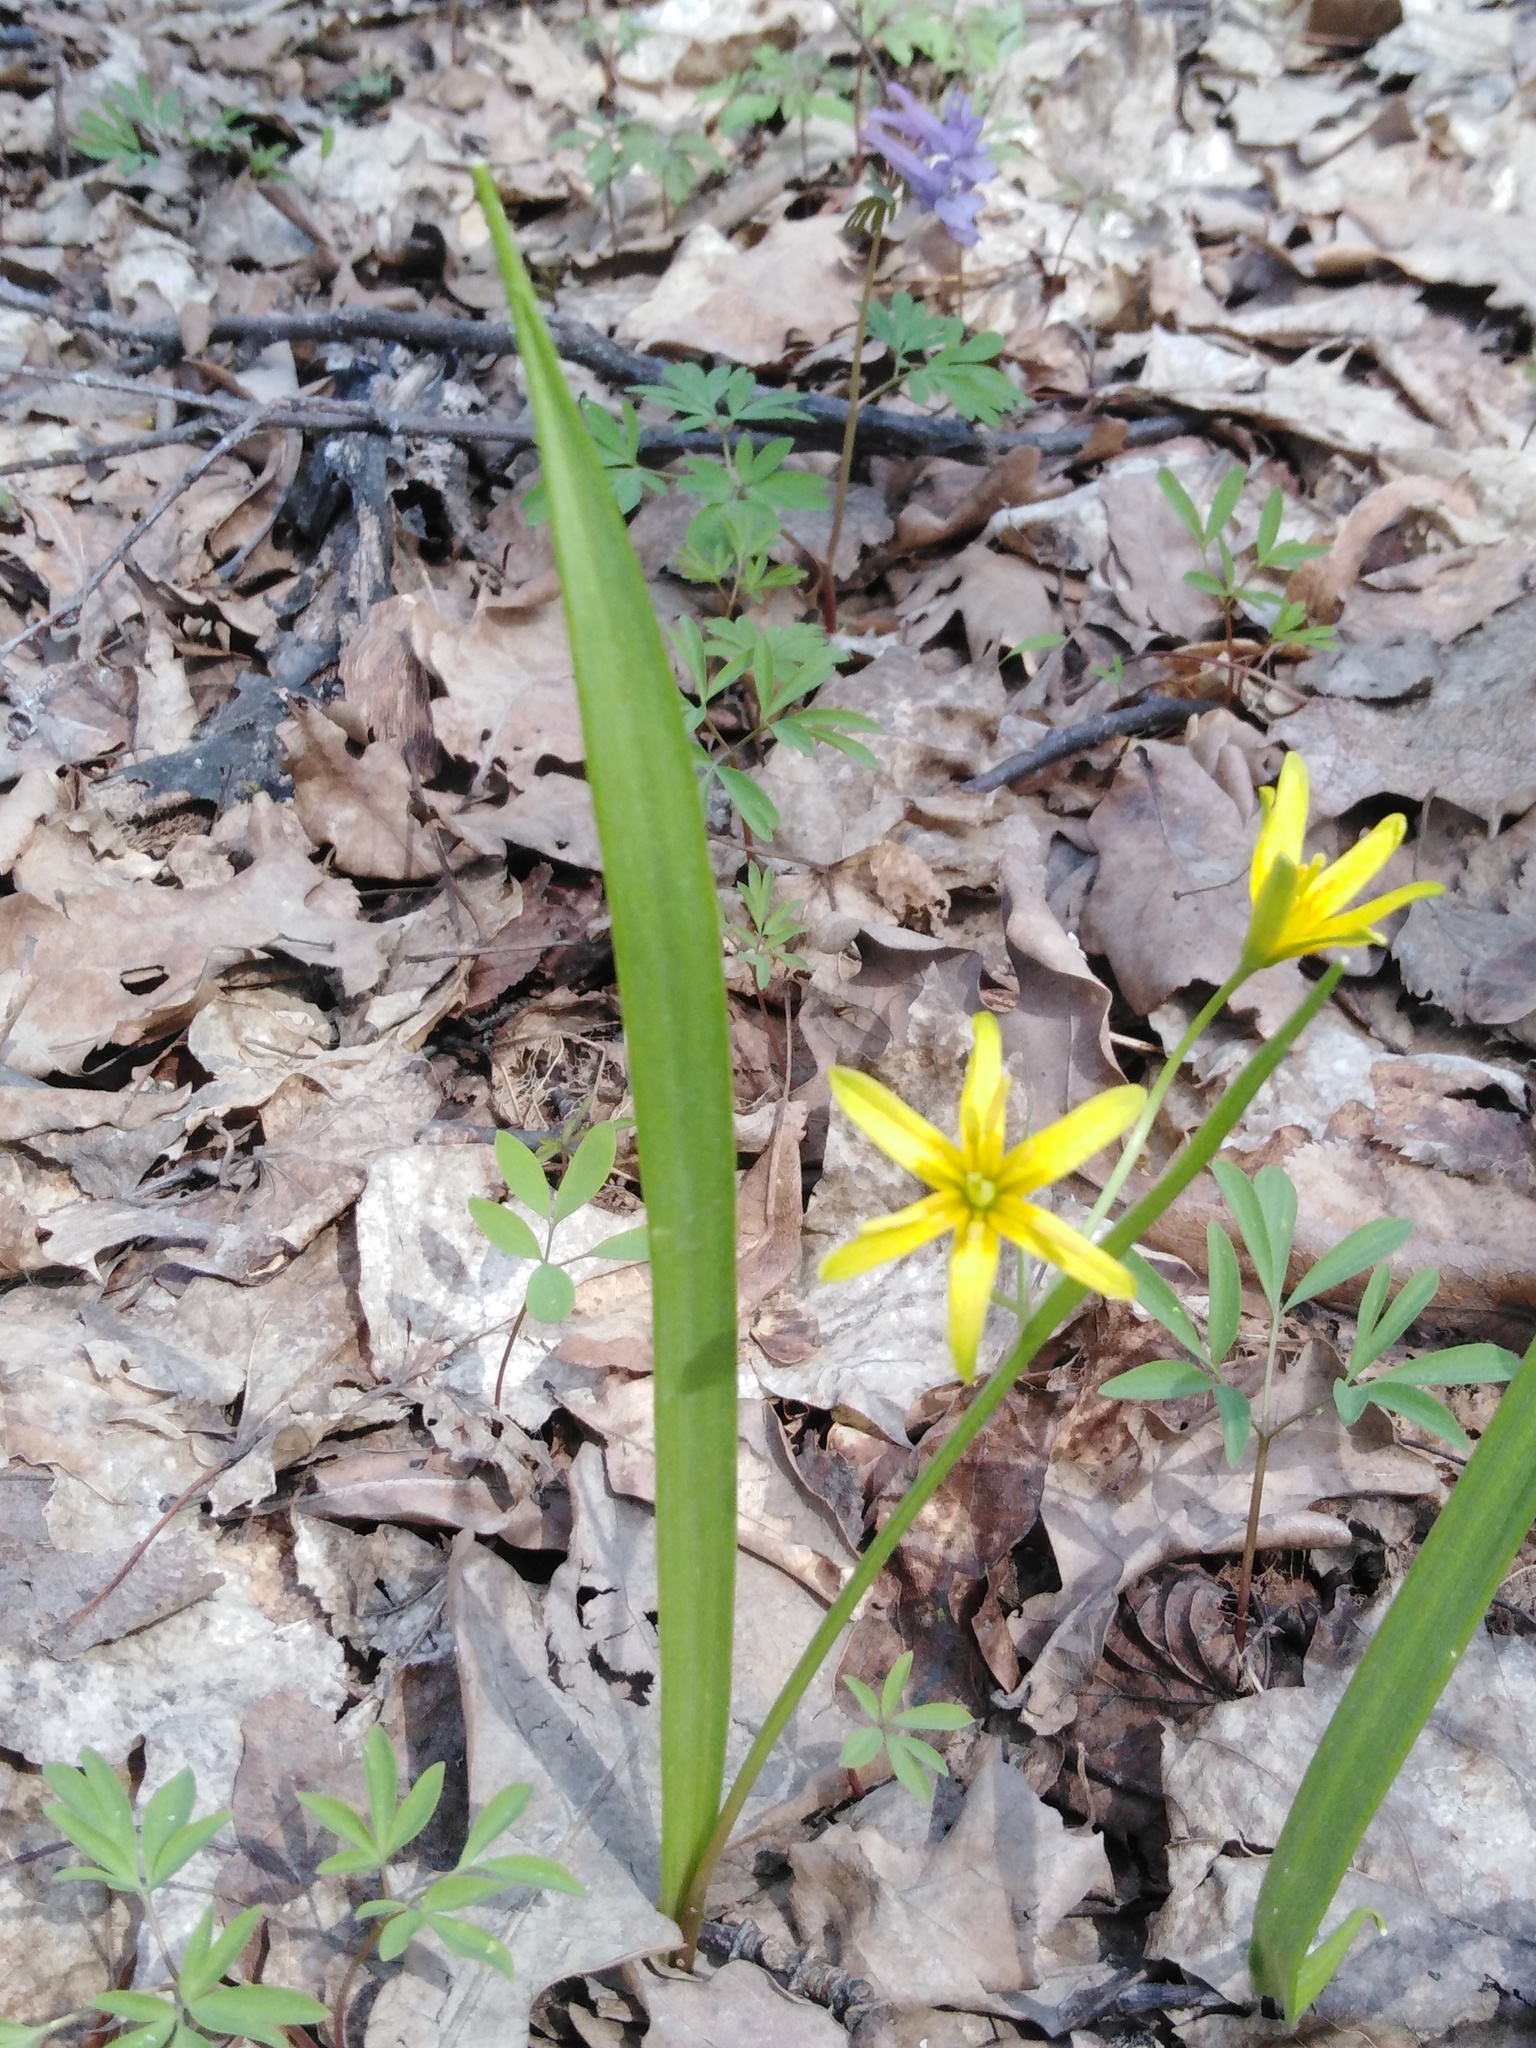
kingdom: Plantae
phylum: Tracheophyta
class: Liliopsida
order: Liliales
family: Liliaceae
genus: Gagea
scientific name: Gagea lutea
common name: Yellow star-of-bethlehem
